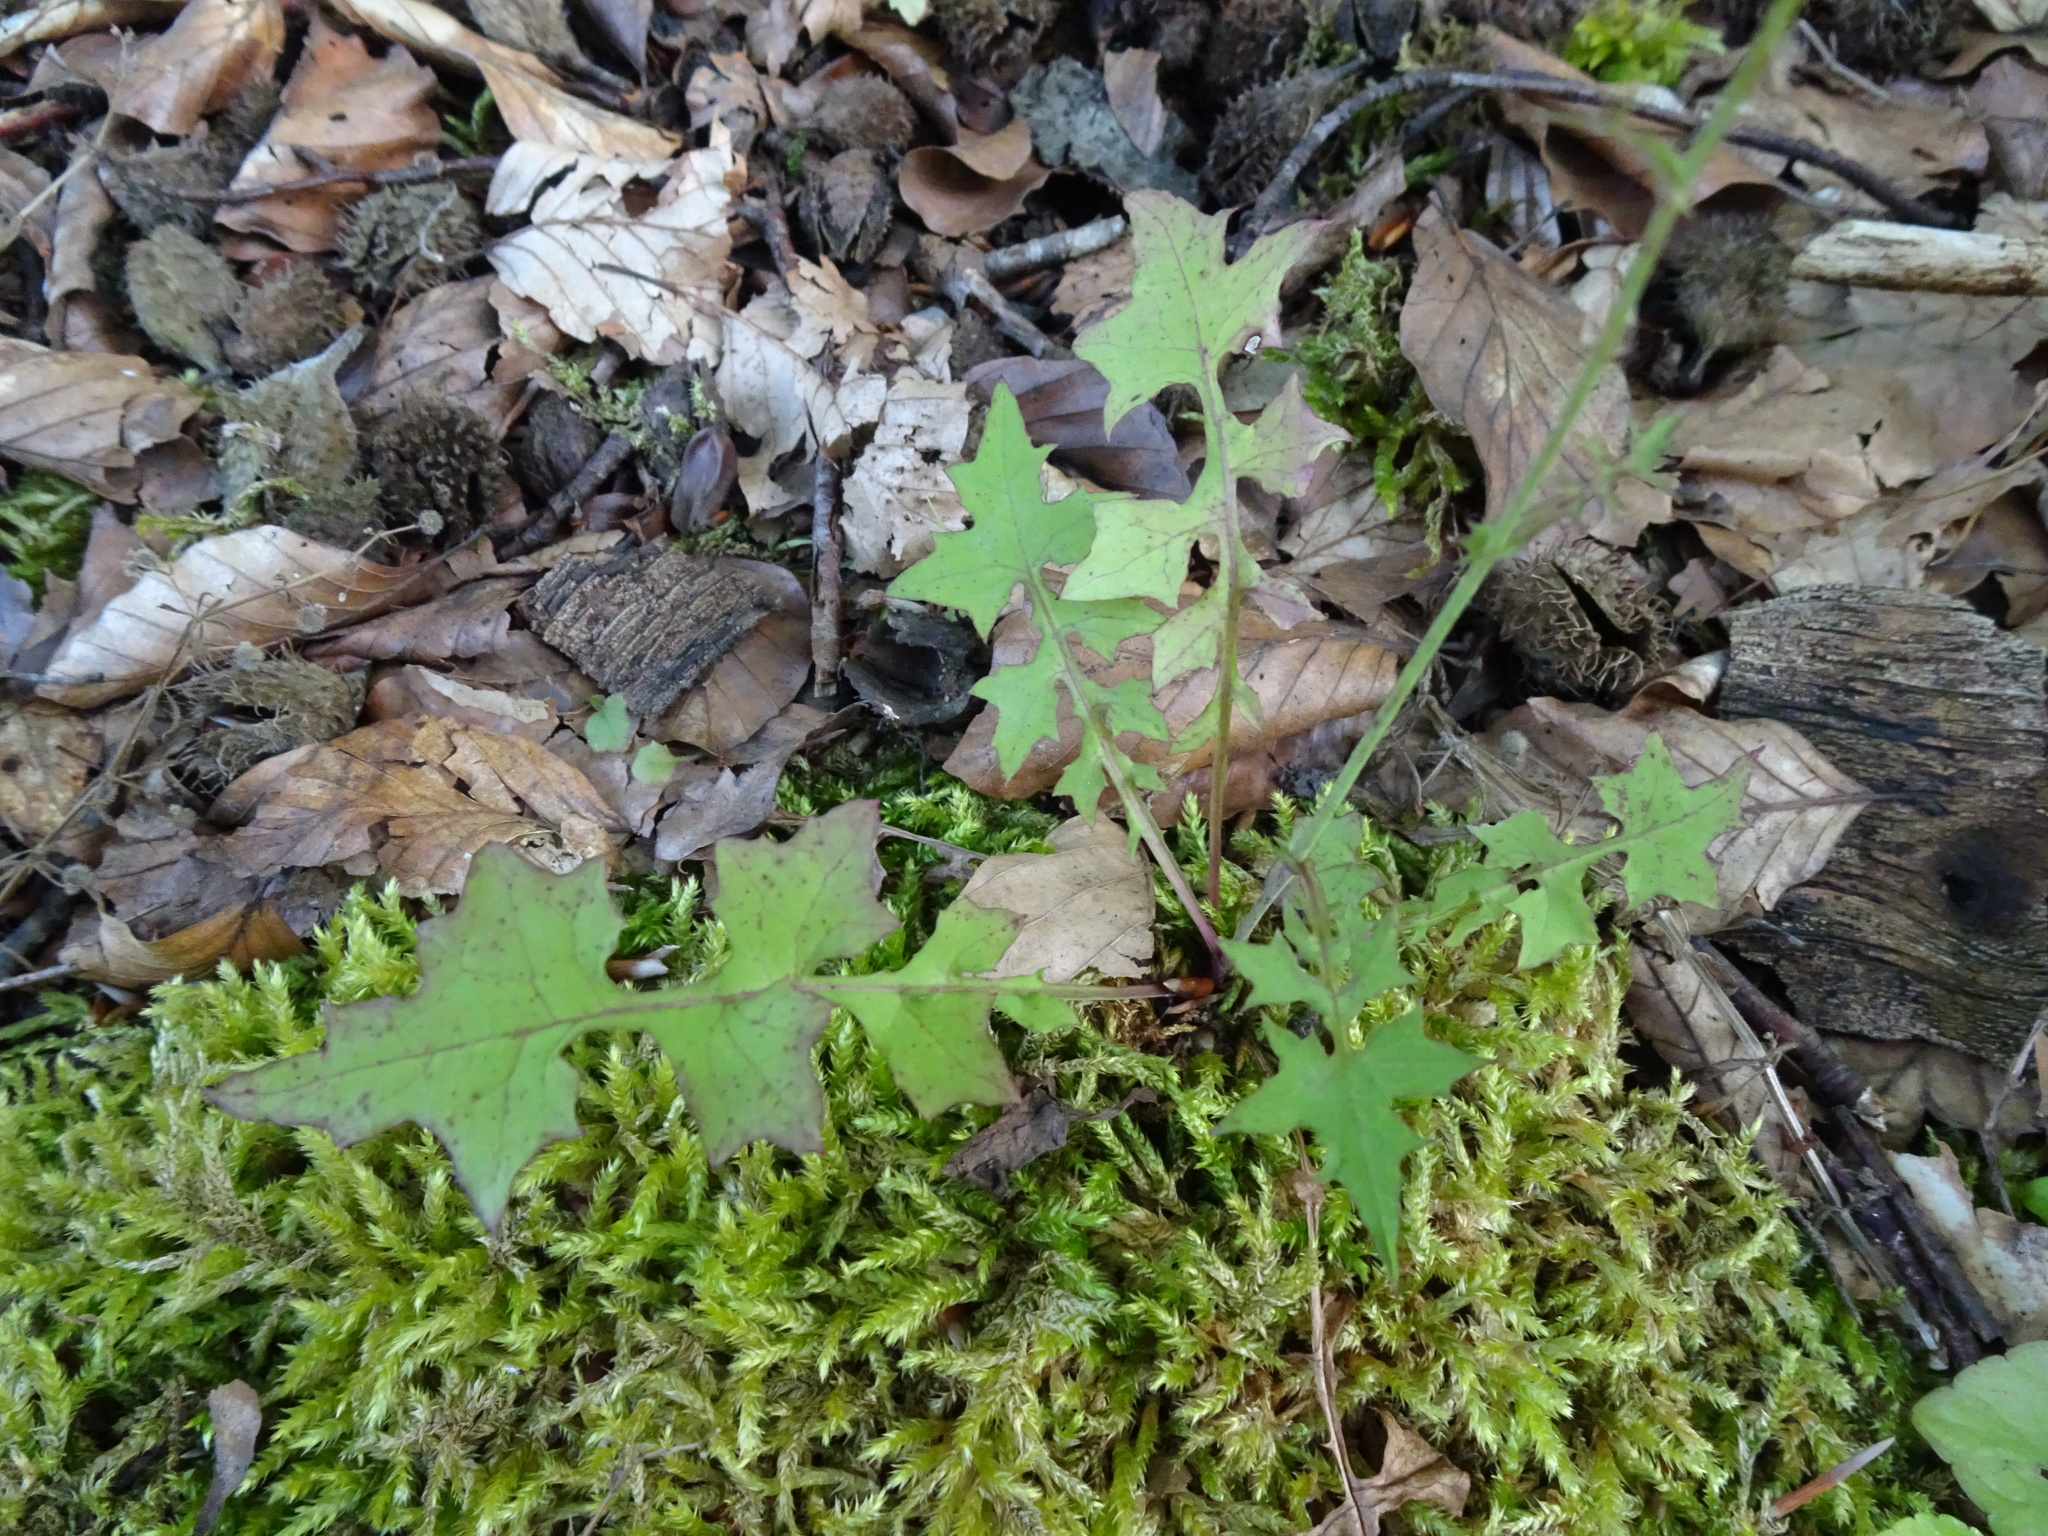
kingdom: Plantae
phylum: Tracheophyta
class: Magnoliopsida
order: Asterales
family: Asteraceae
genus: Mycelis
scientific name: Mycelis muralis
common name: Wall lettuce
